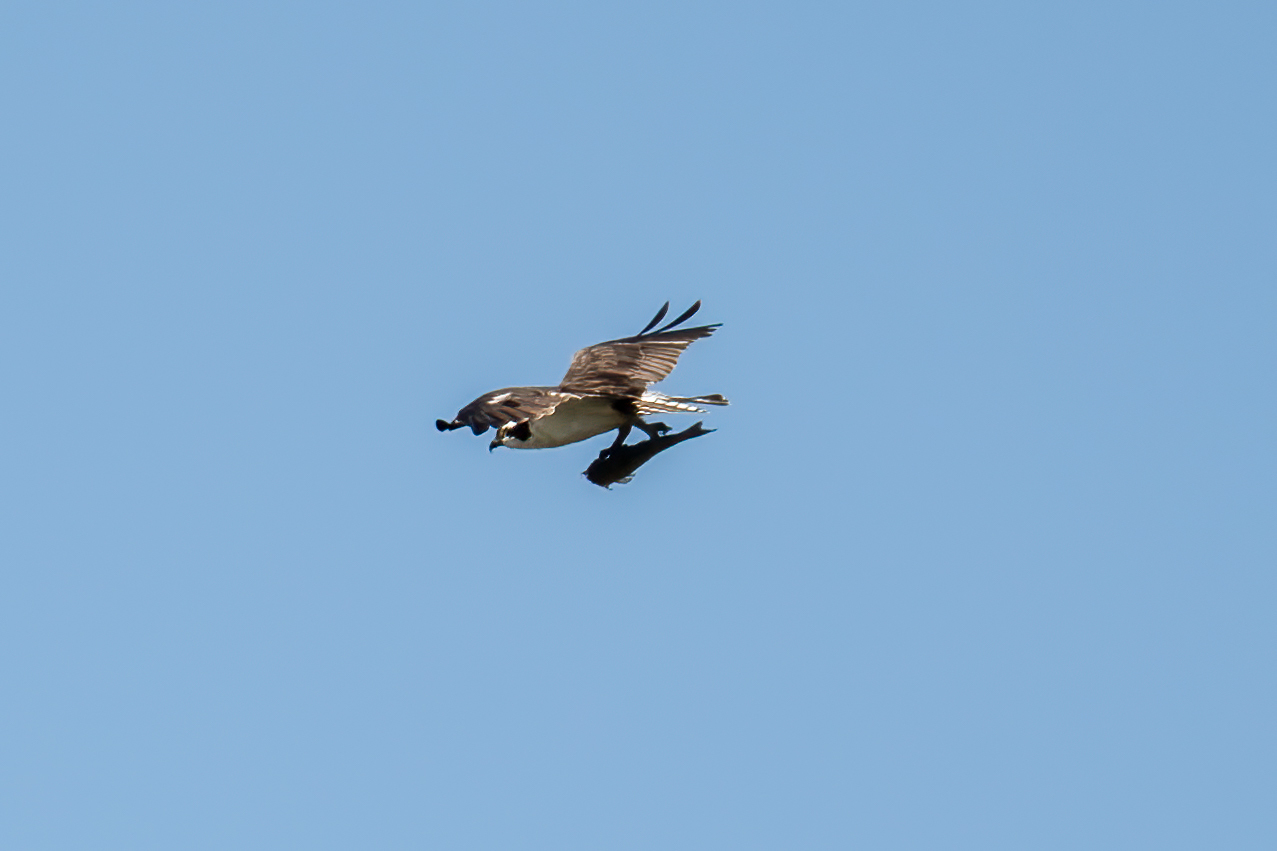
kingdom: Animalia
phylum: Chordata
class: Aves
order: Accipitriformes
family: Pandionidae
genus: Pandion
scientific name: Pandion haliaetus
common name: Osprey
